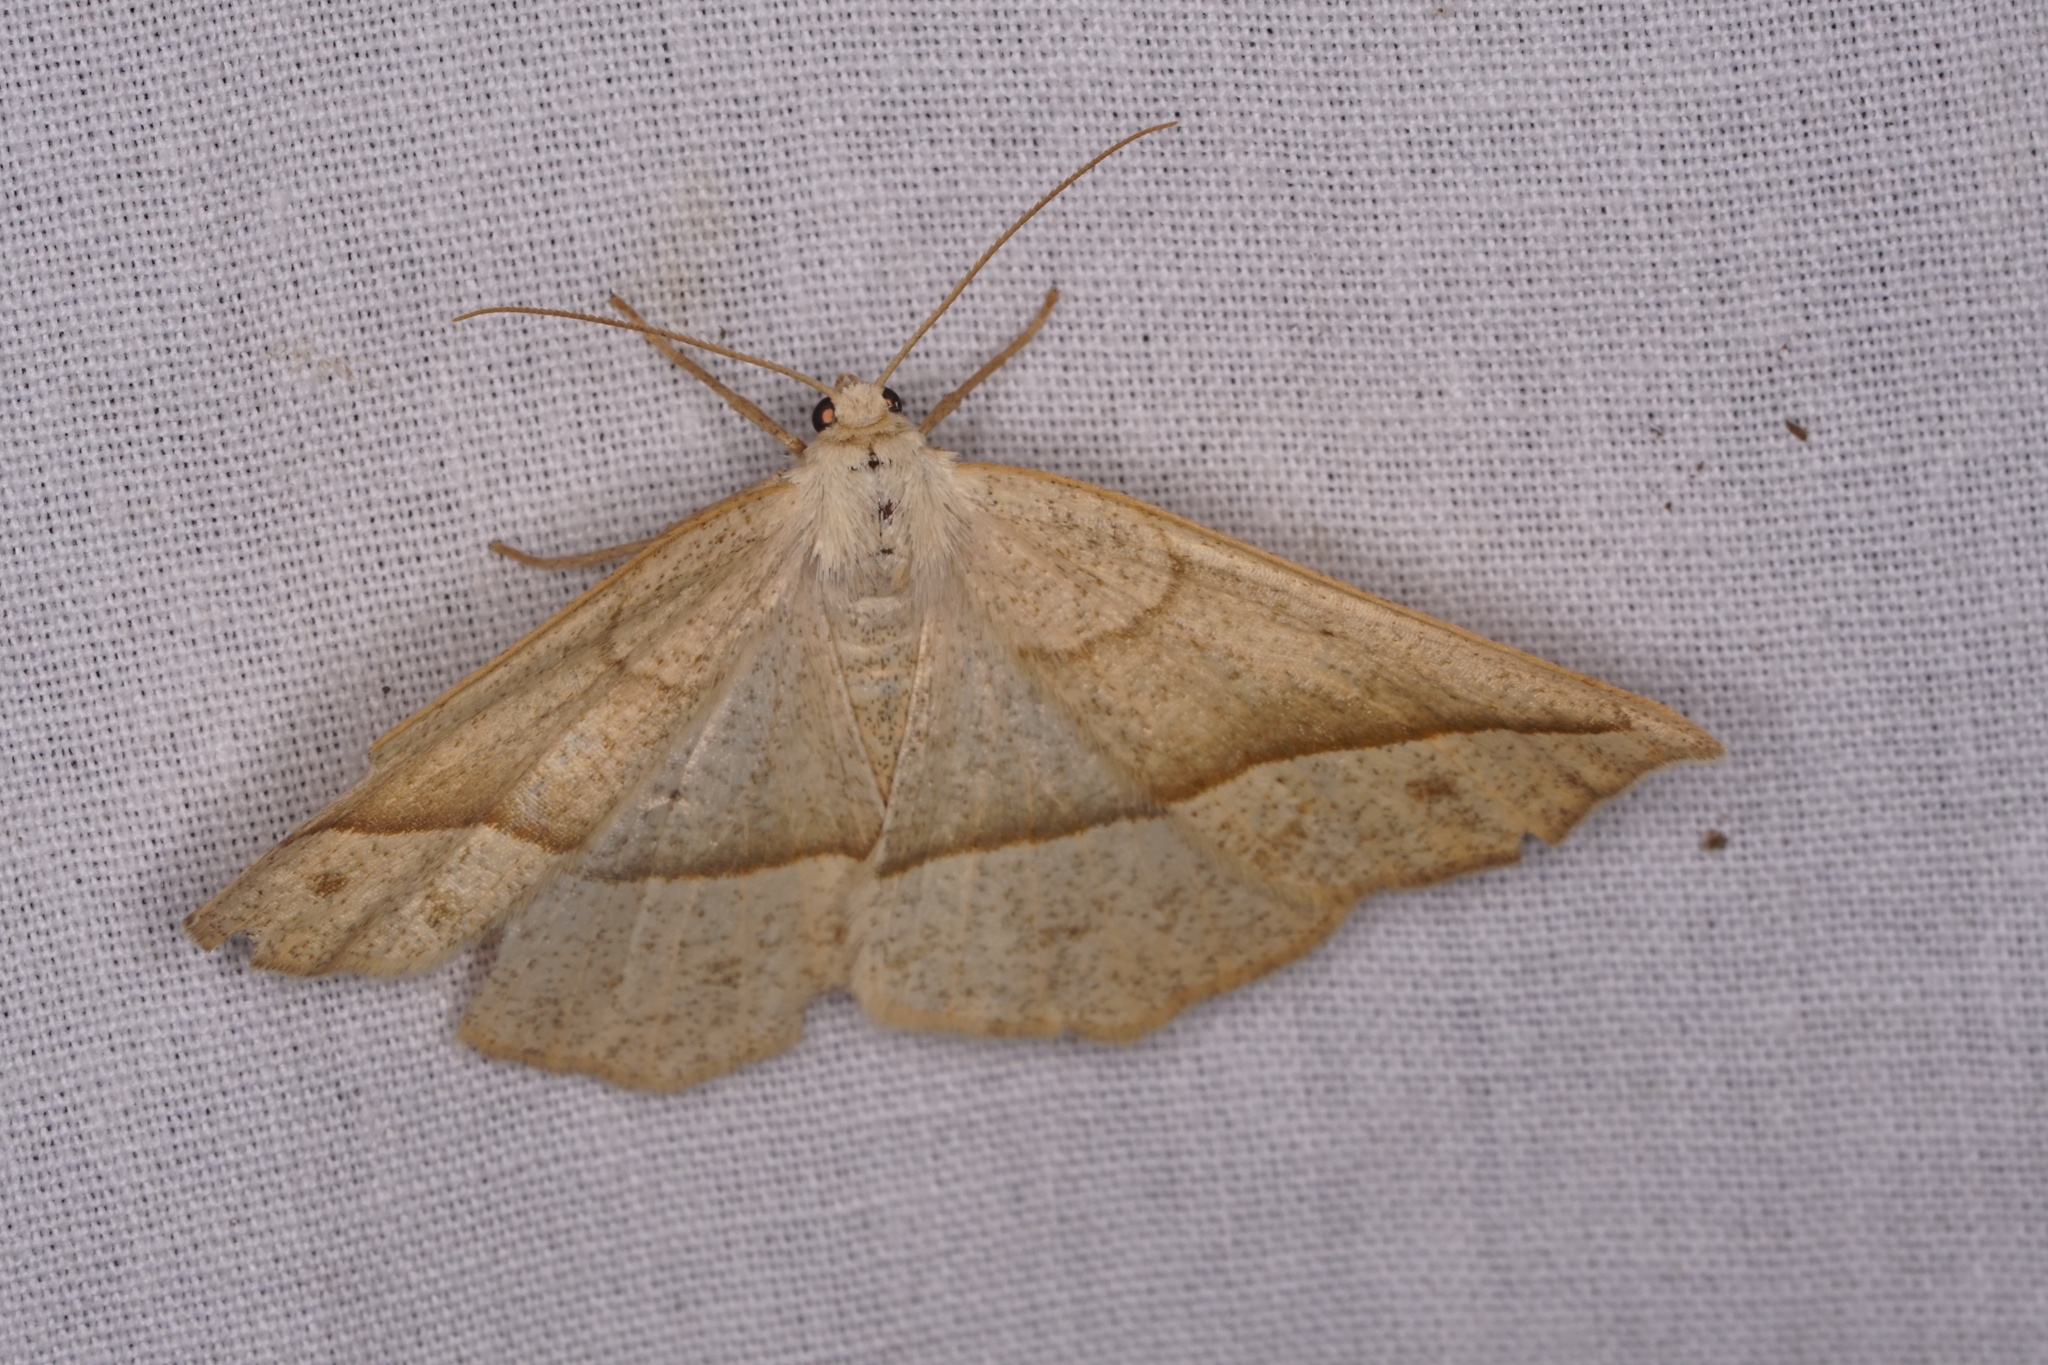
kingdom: Animalia
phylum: Arthropoda
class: Insecta
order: Lepidoptera
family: Geometridae
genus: Eusarca
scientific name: Eusarca confusaria
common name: Confused eusarca
